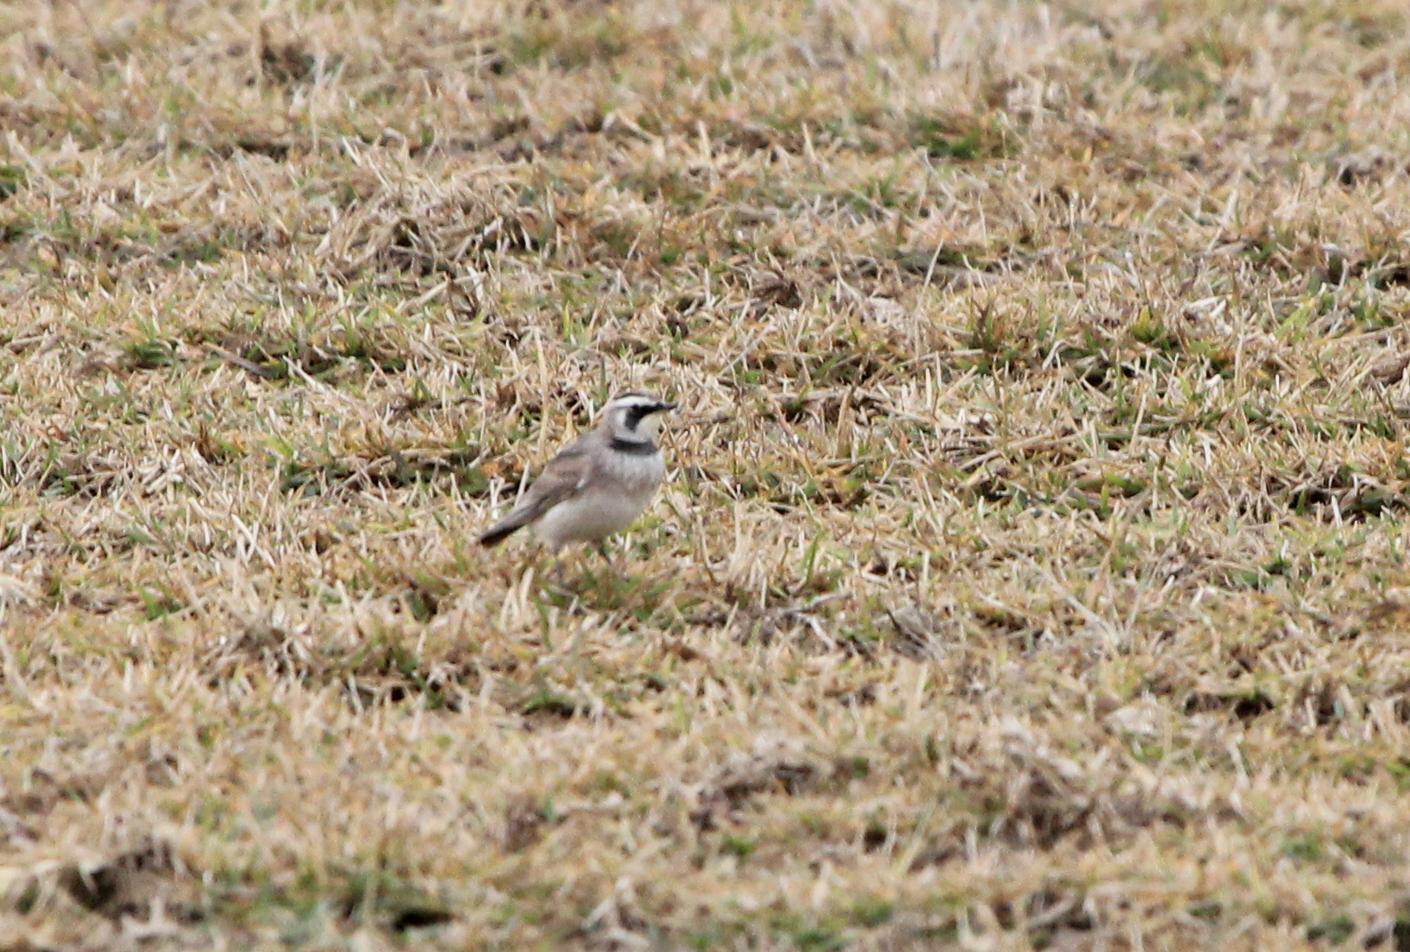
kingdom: Animalia
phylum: Chordata
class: Aves
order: Passeriformes
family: Alaudidae
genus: Eremophila
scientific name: Eremophila alpestris
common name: Horned lark
